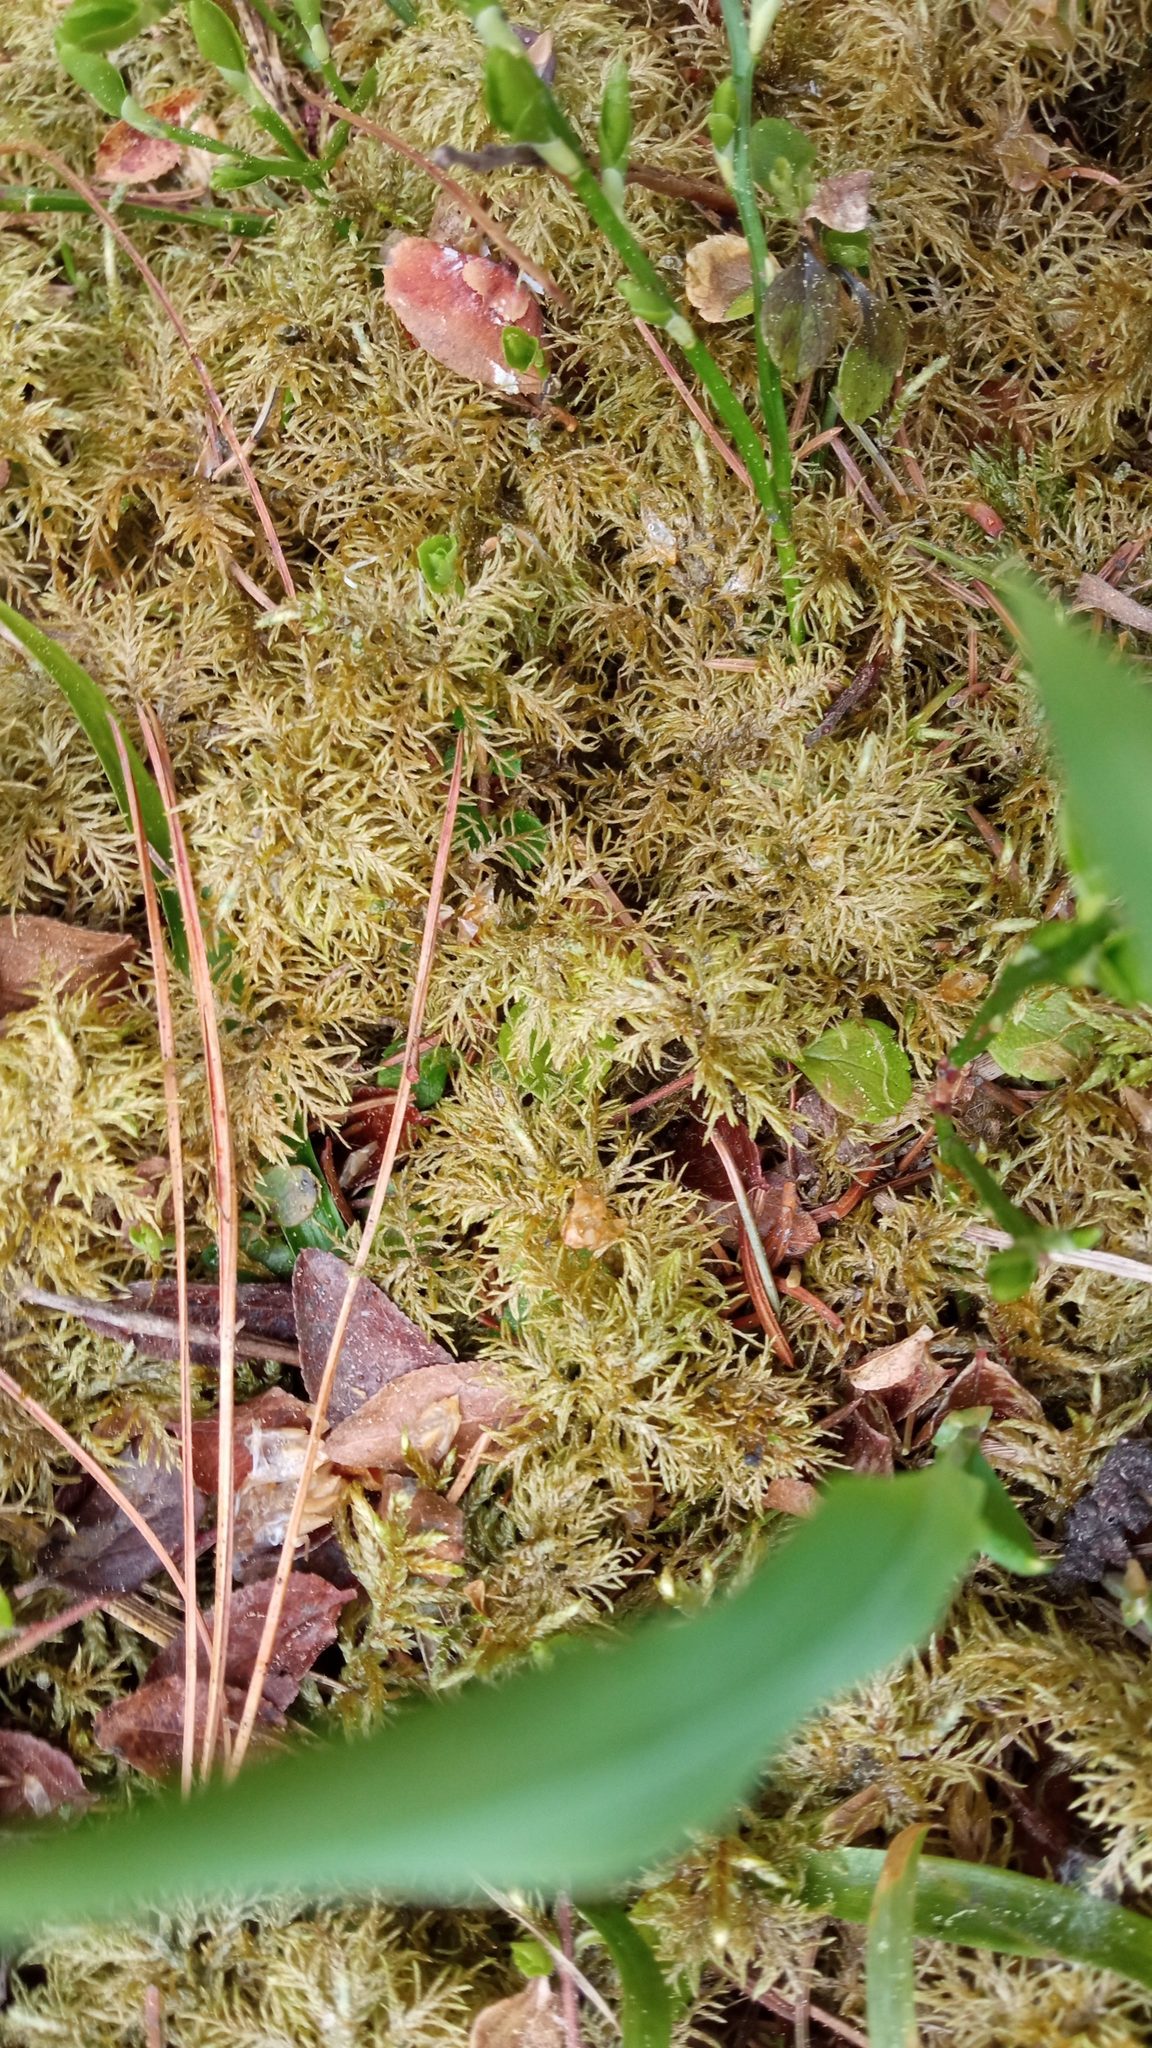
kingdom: Plantae
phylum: Bryophyta
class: Bryopsida
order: Hypnales
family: Hylocomiaceae
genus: Hylocomium
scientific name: Hylocomium splendens
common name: Stairstep moss
